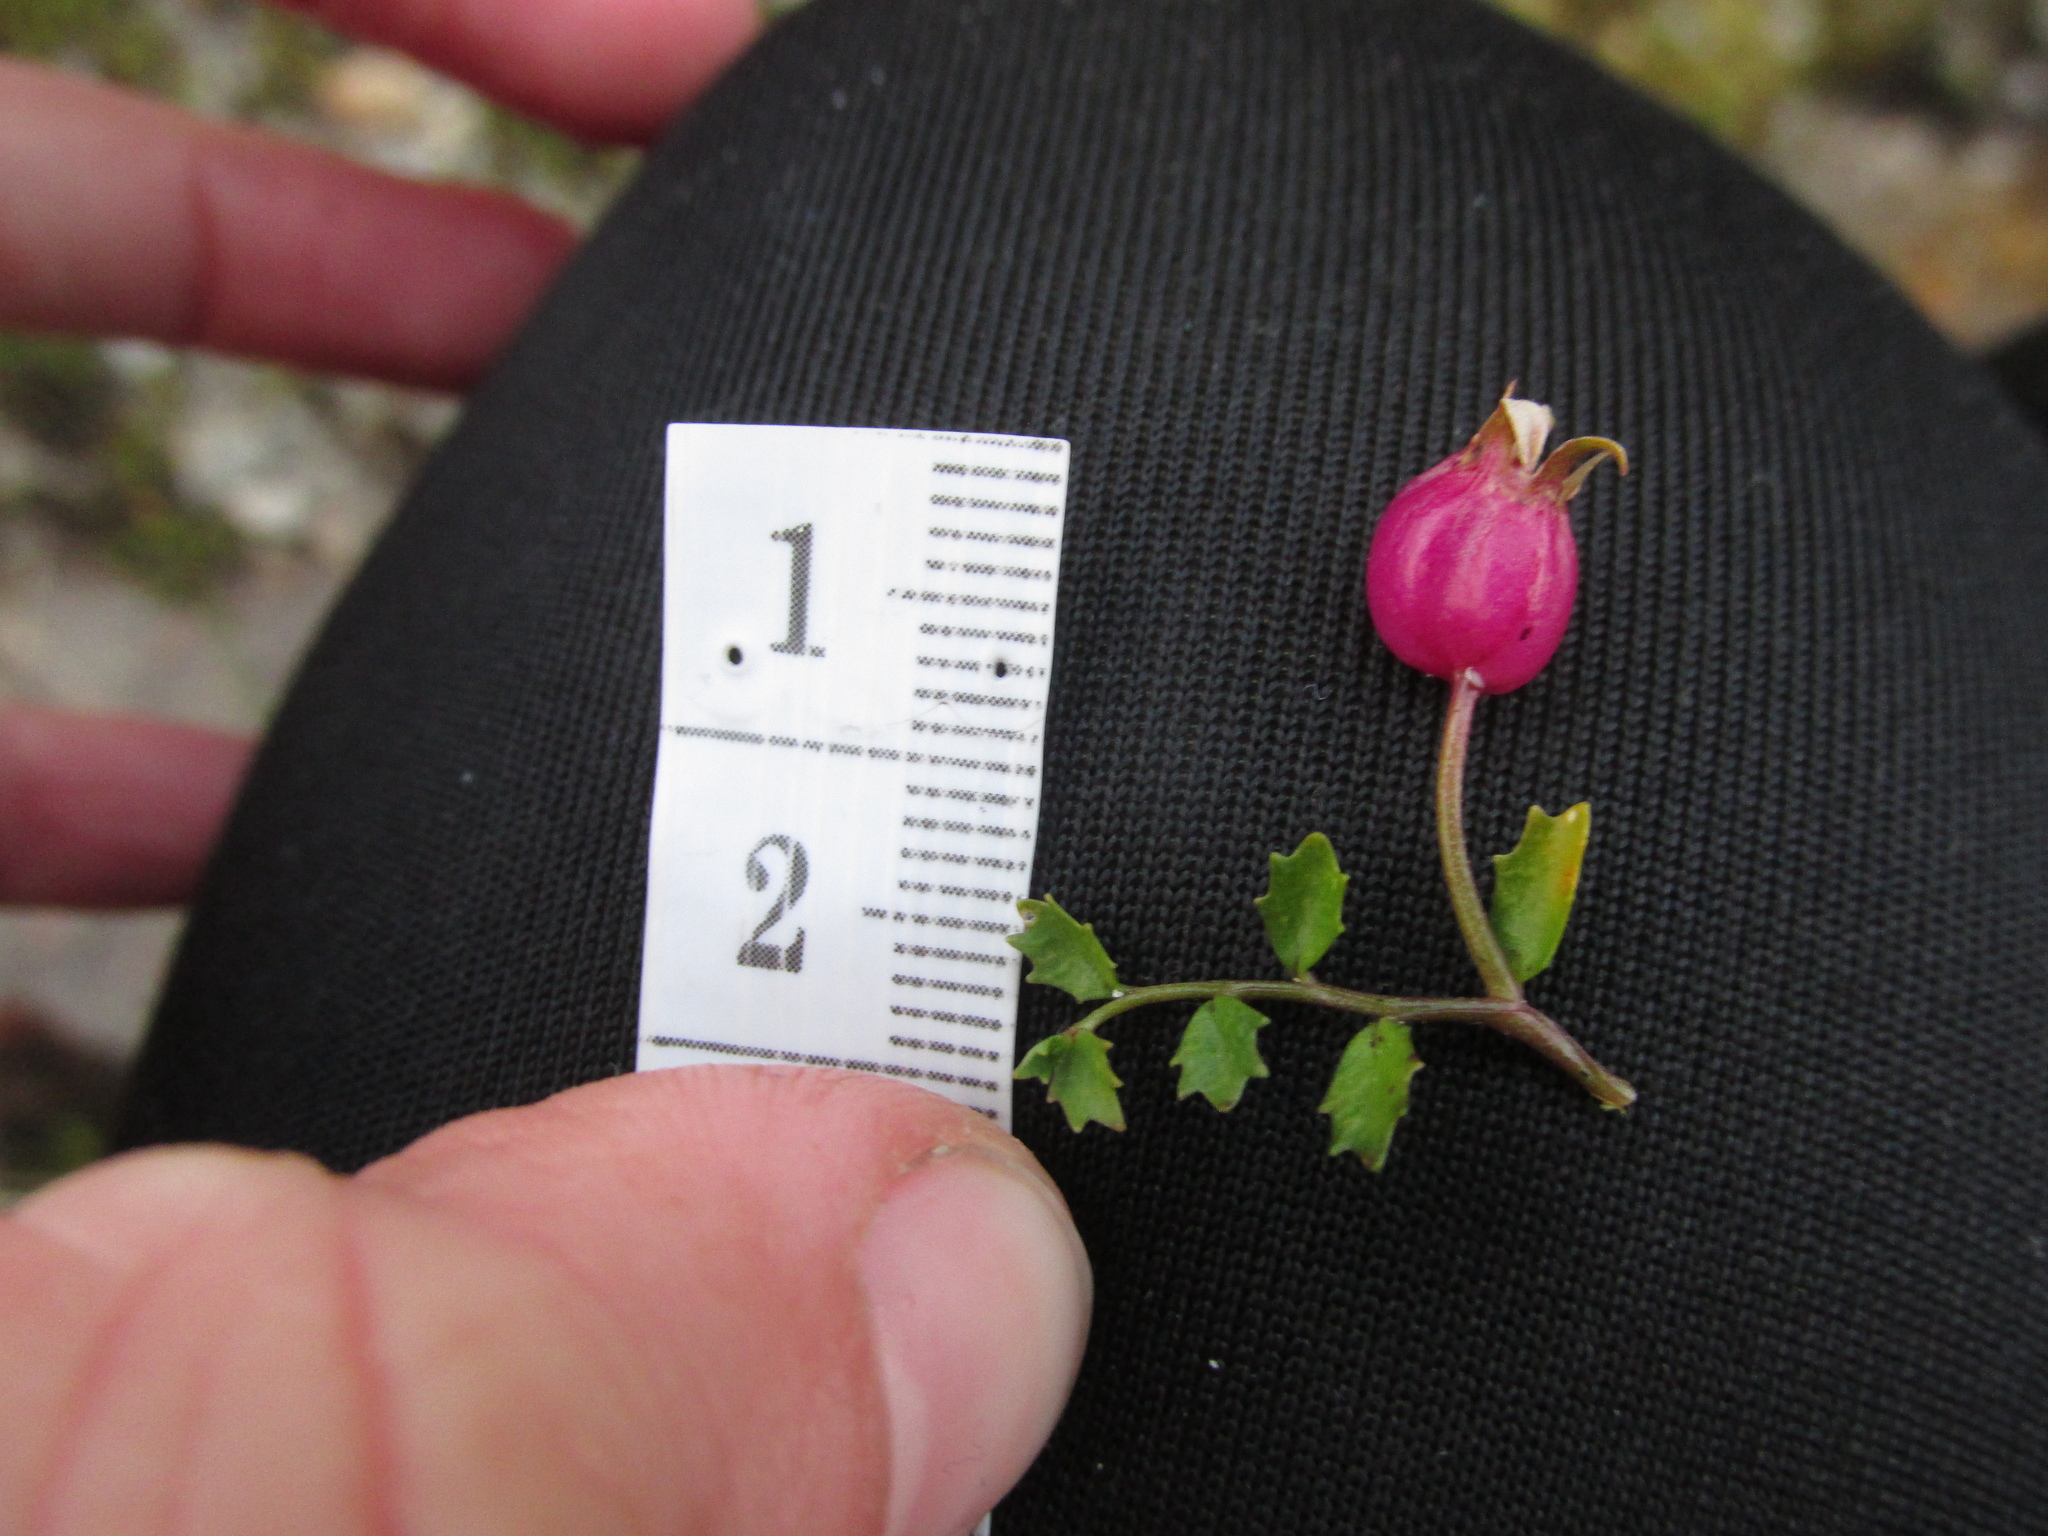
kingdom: Plantae
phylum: Tracheophyta
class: Magnoliopsida
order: Asterales
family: Campanulaceae
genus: Lobelia
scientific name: Lobelia angulata
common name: Lawn lobelia
